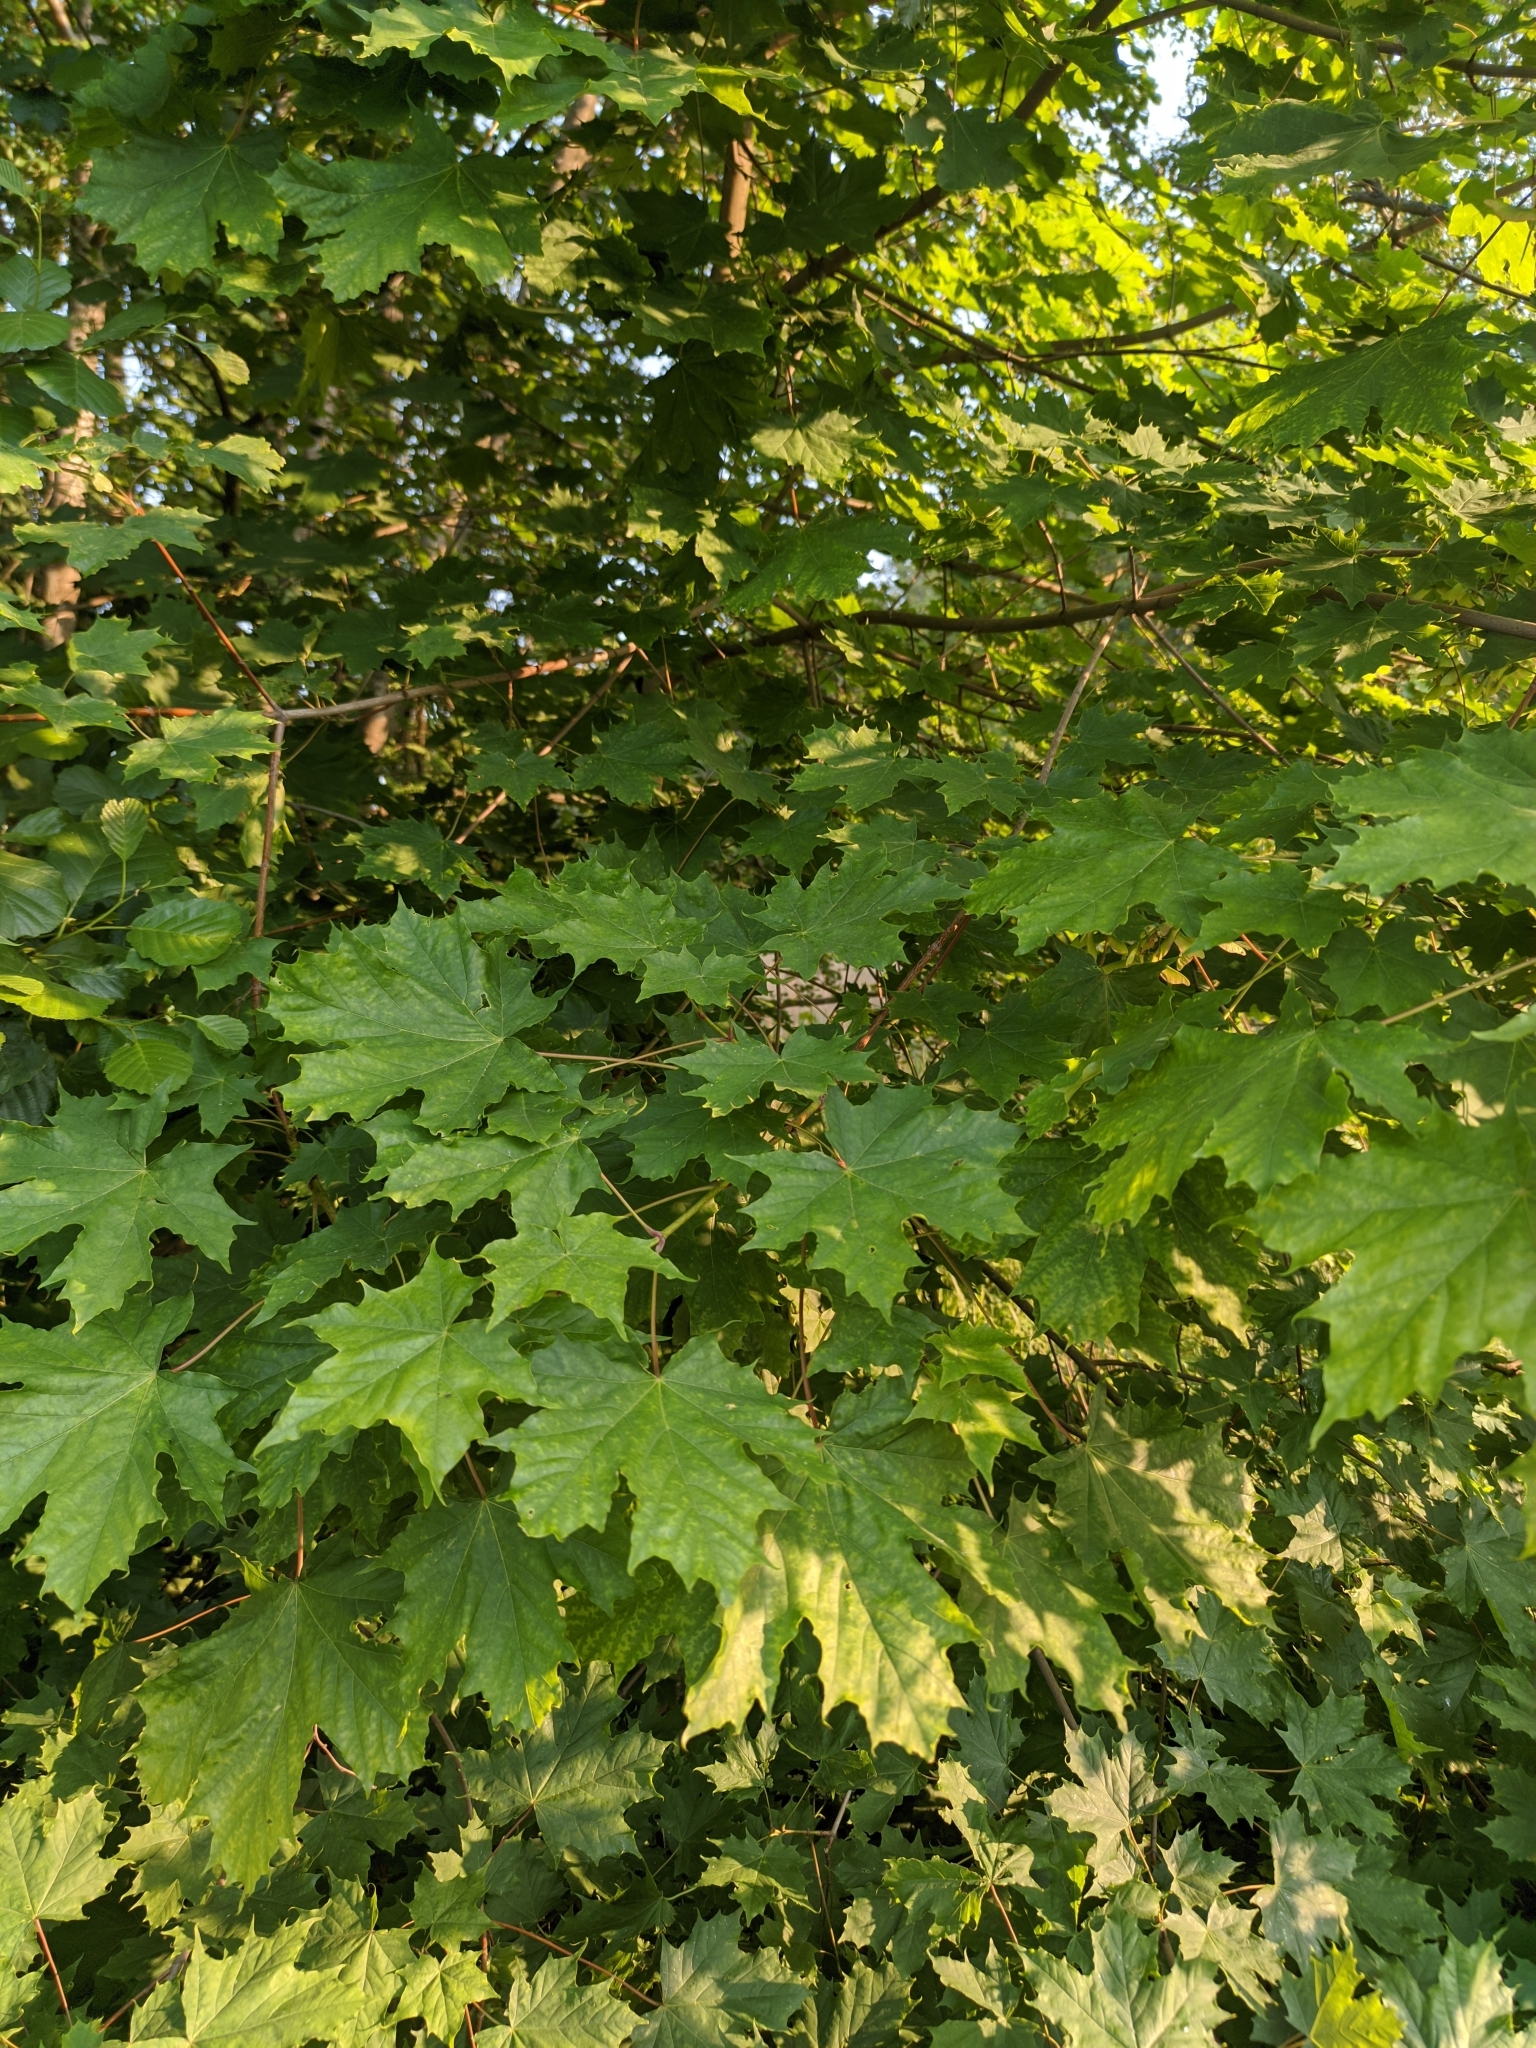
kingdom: Plantae
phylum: Tracheophyta
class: Magnoliopsida
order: Sapindales
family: Sapindaceae
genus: Acer
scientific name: Acer platanoides
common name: Norway maple
